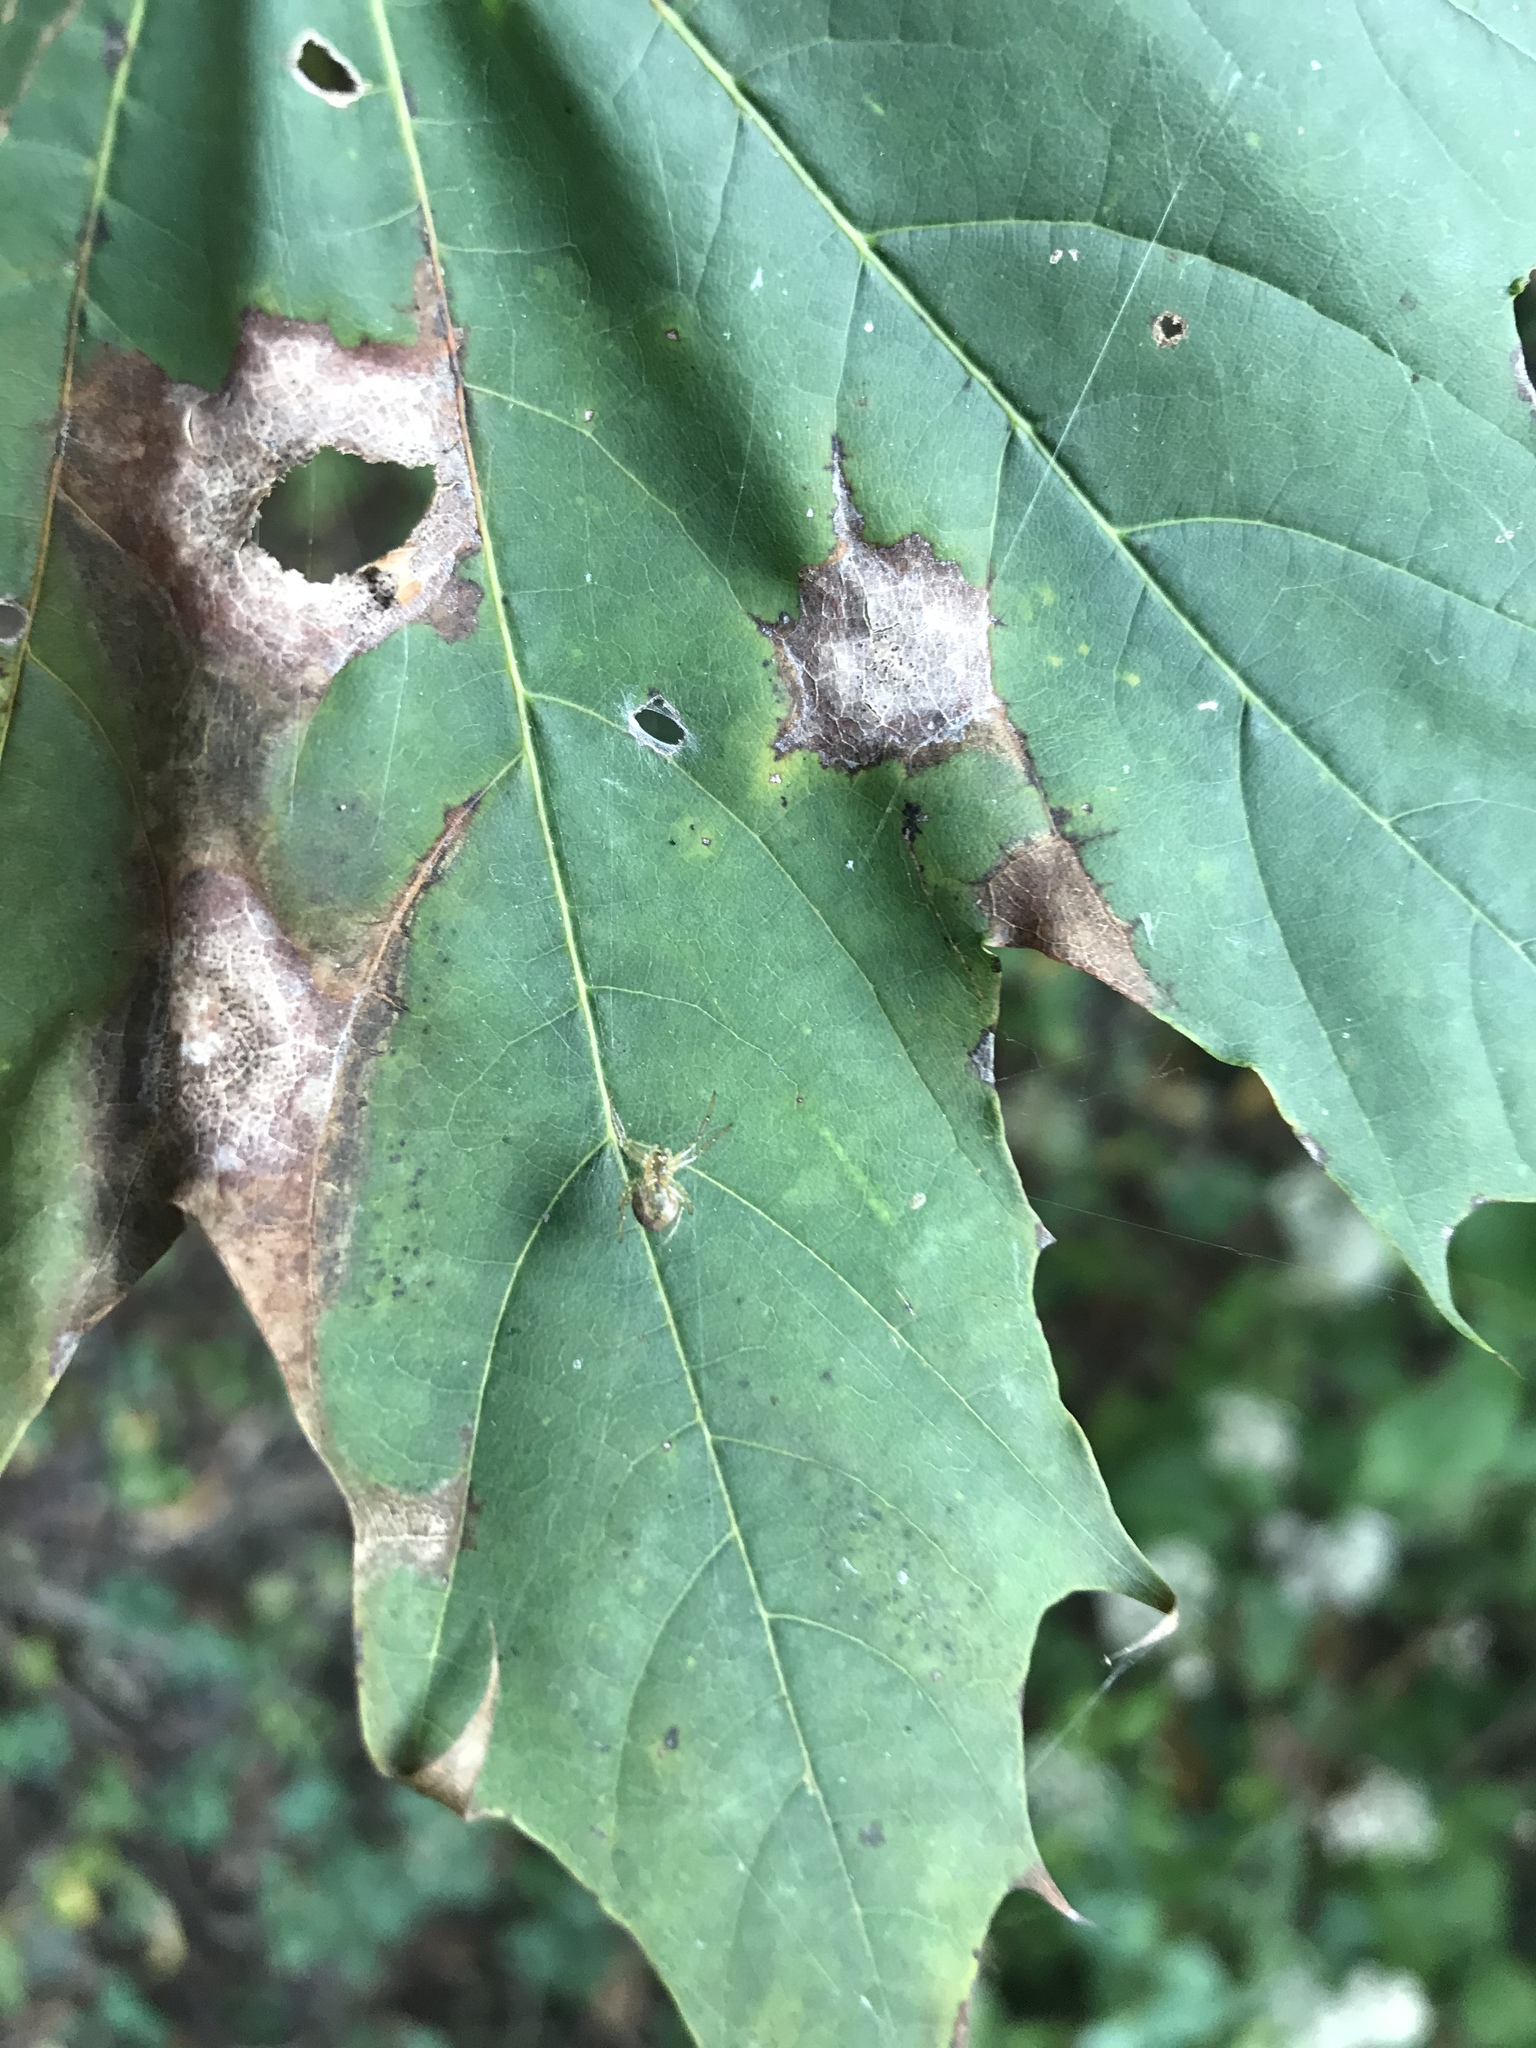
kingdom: Plantae
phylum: Tracheophyta
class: Magnoliopsida
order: Sapindales
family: Sapindaceae
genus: Acer
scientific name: Acer platanoides
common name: Norway maple
